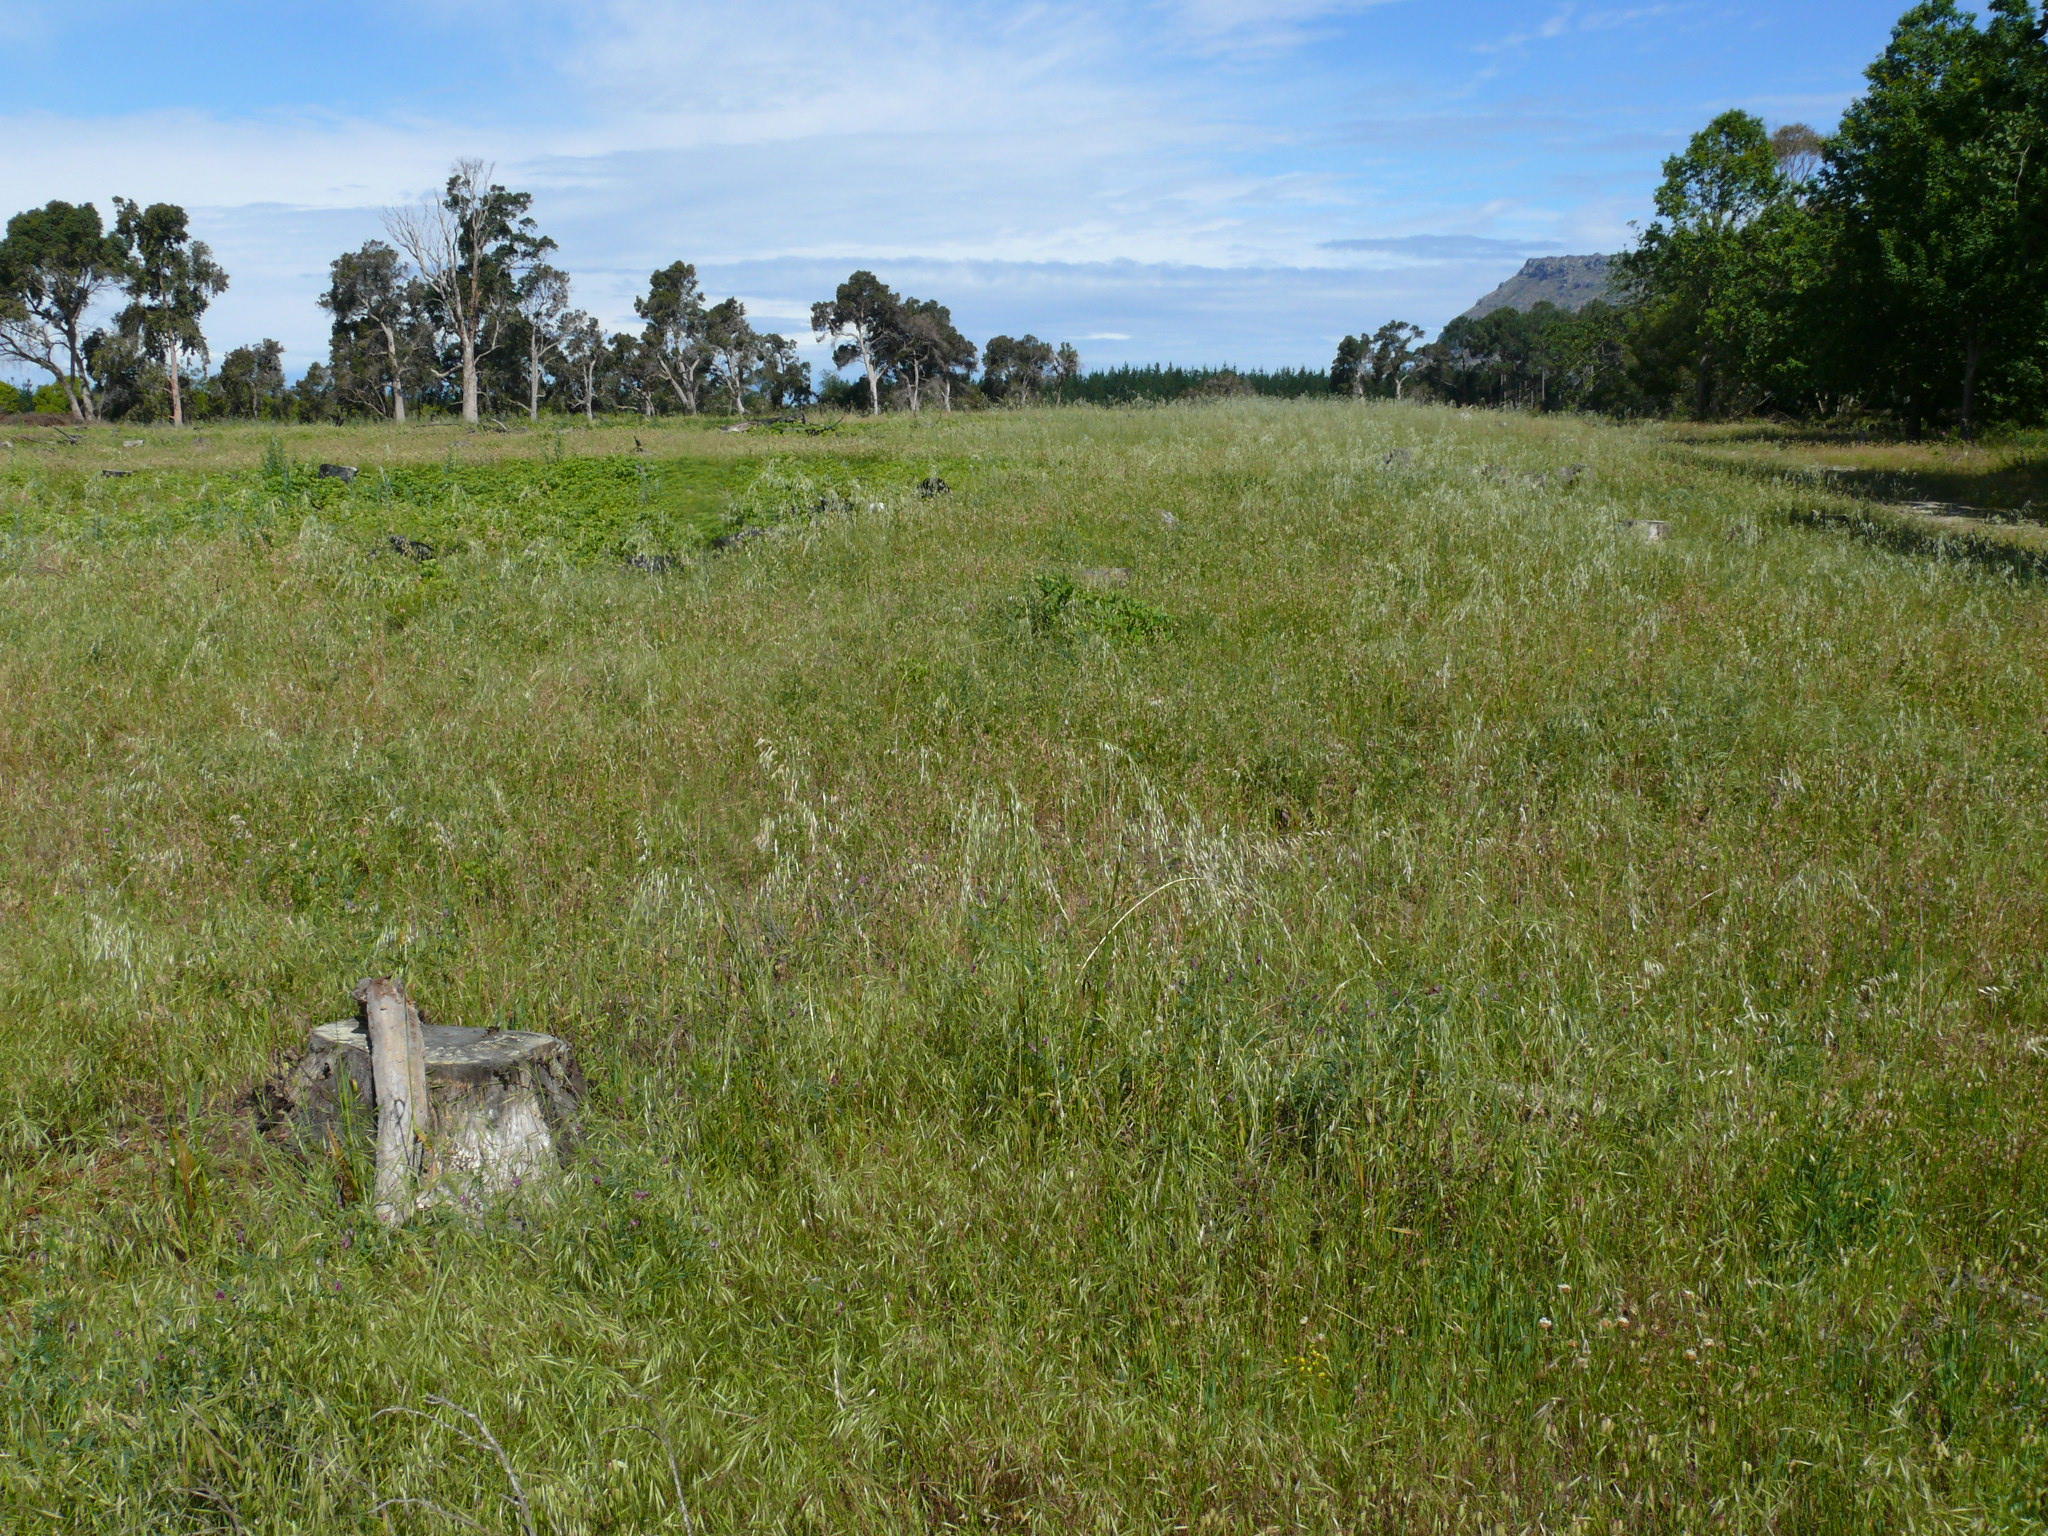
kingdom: Plantae
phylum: Tracheophyta
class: Liliopsida
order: Poales
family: Poaceae
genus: Avena
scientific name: Avena fatua
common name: Wild oat
